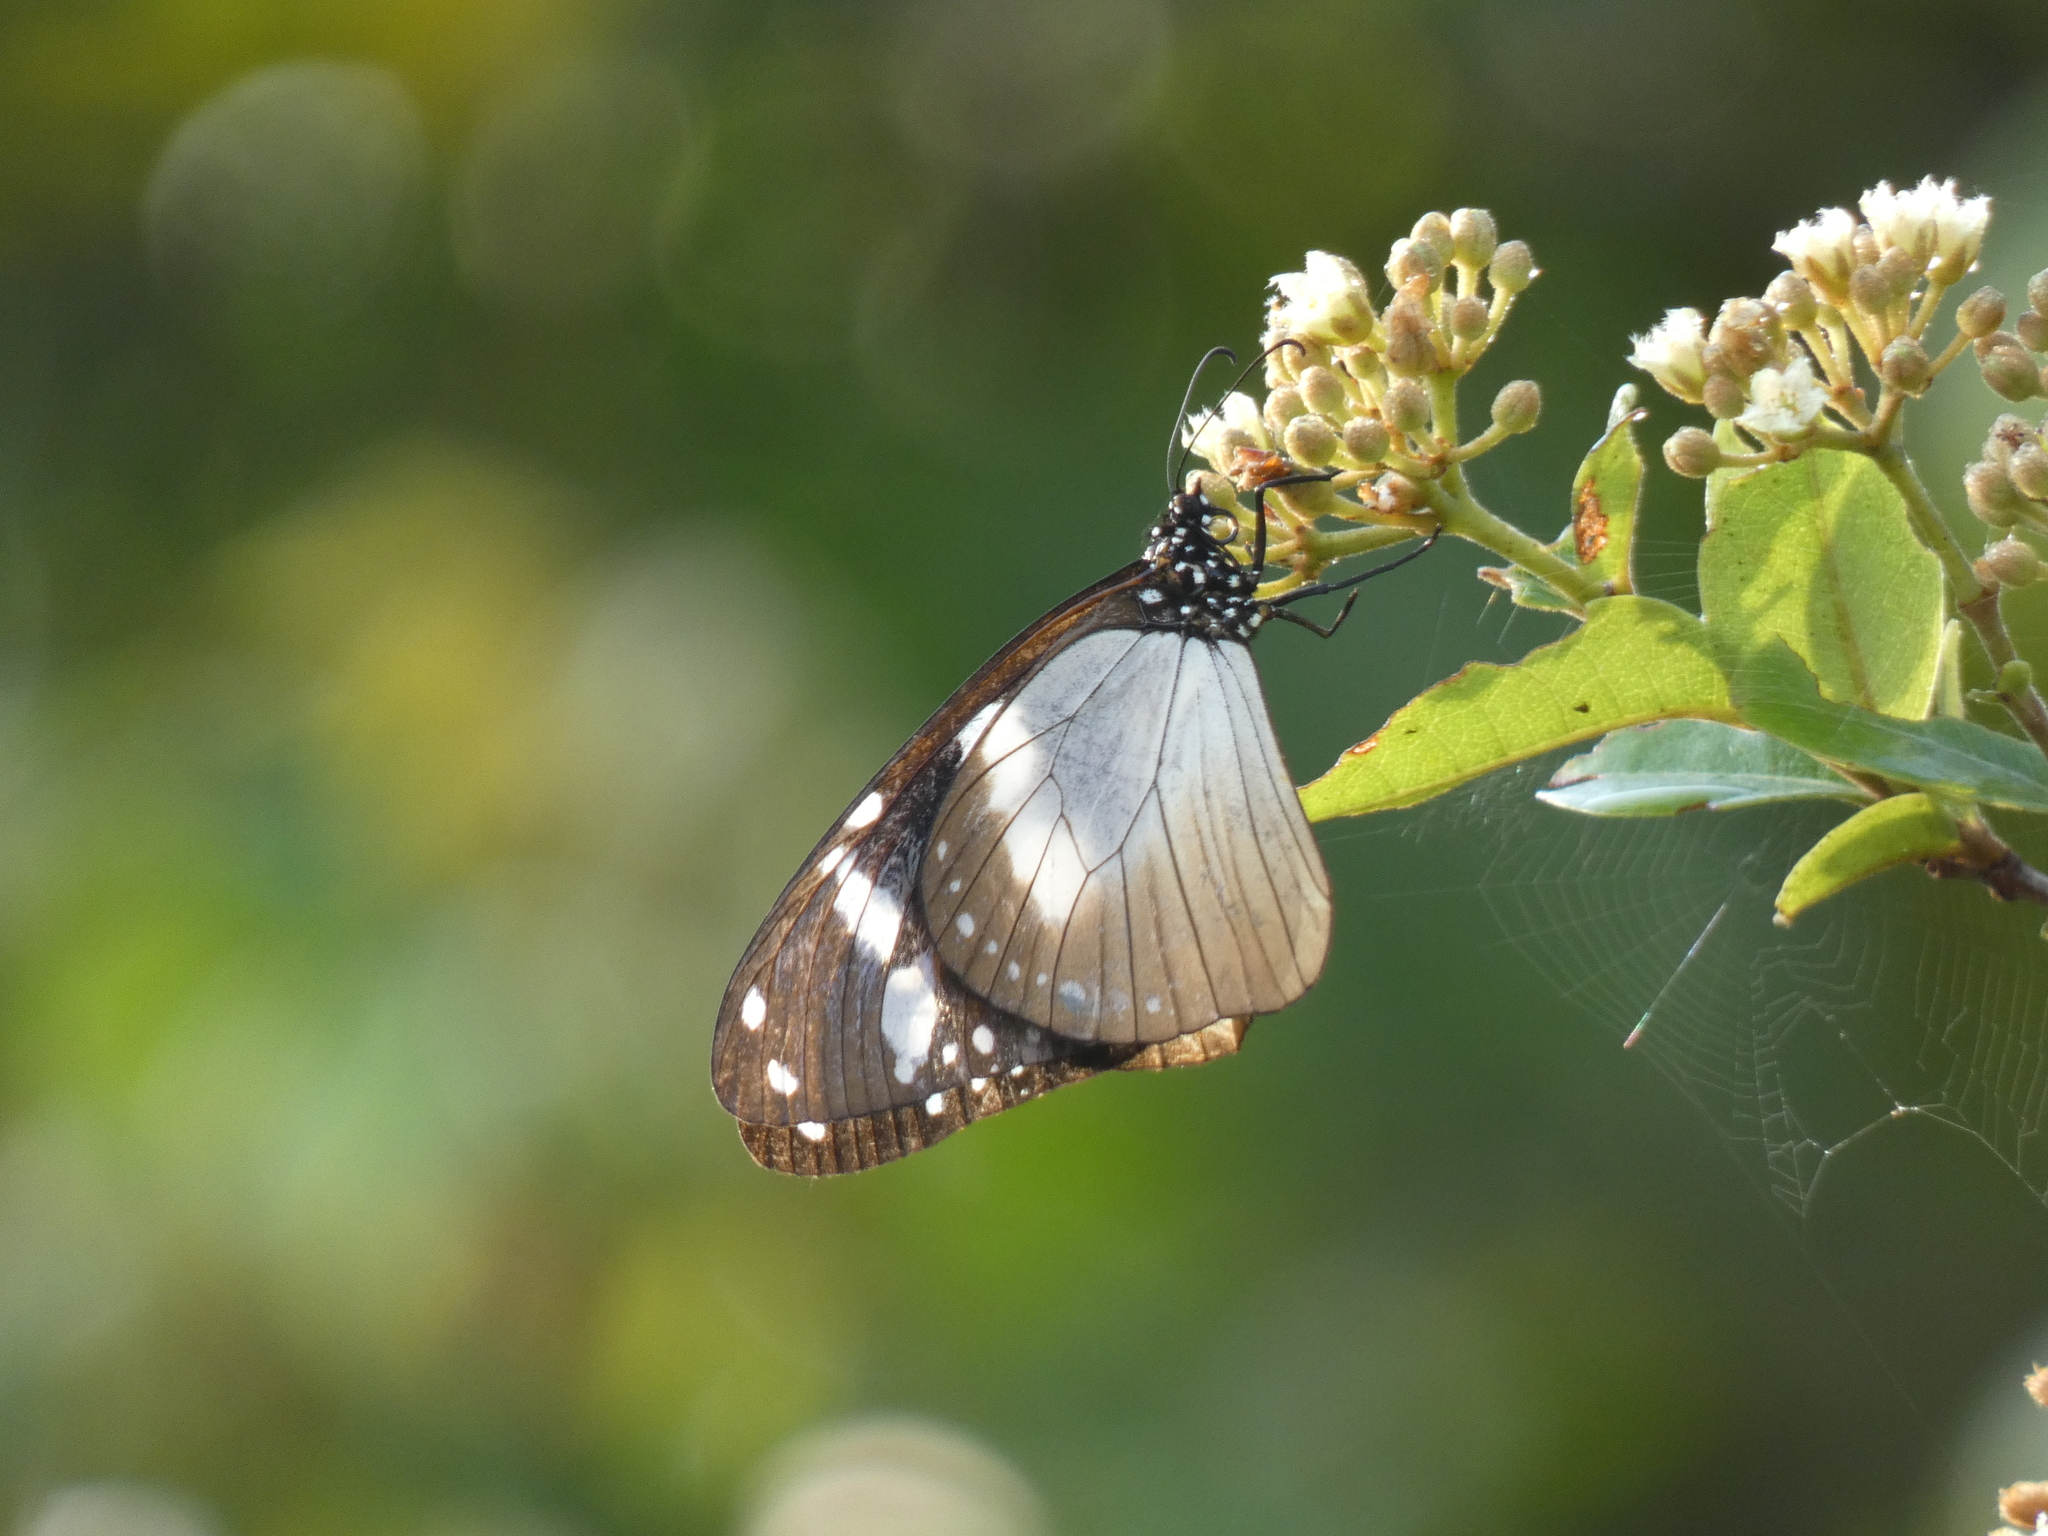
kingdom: Animalia
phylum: Arthropoda
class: Insecta
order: Lepidoptera
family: Nymphalidae
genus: Amauris
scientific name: Amauris tartarea
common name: Monk
